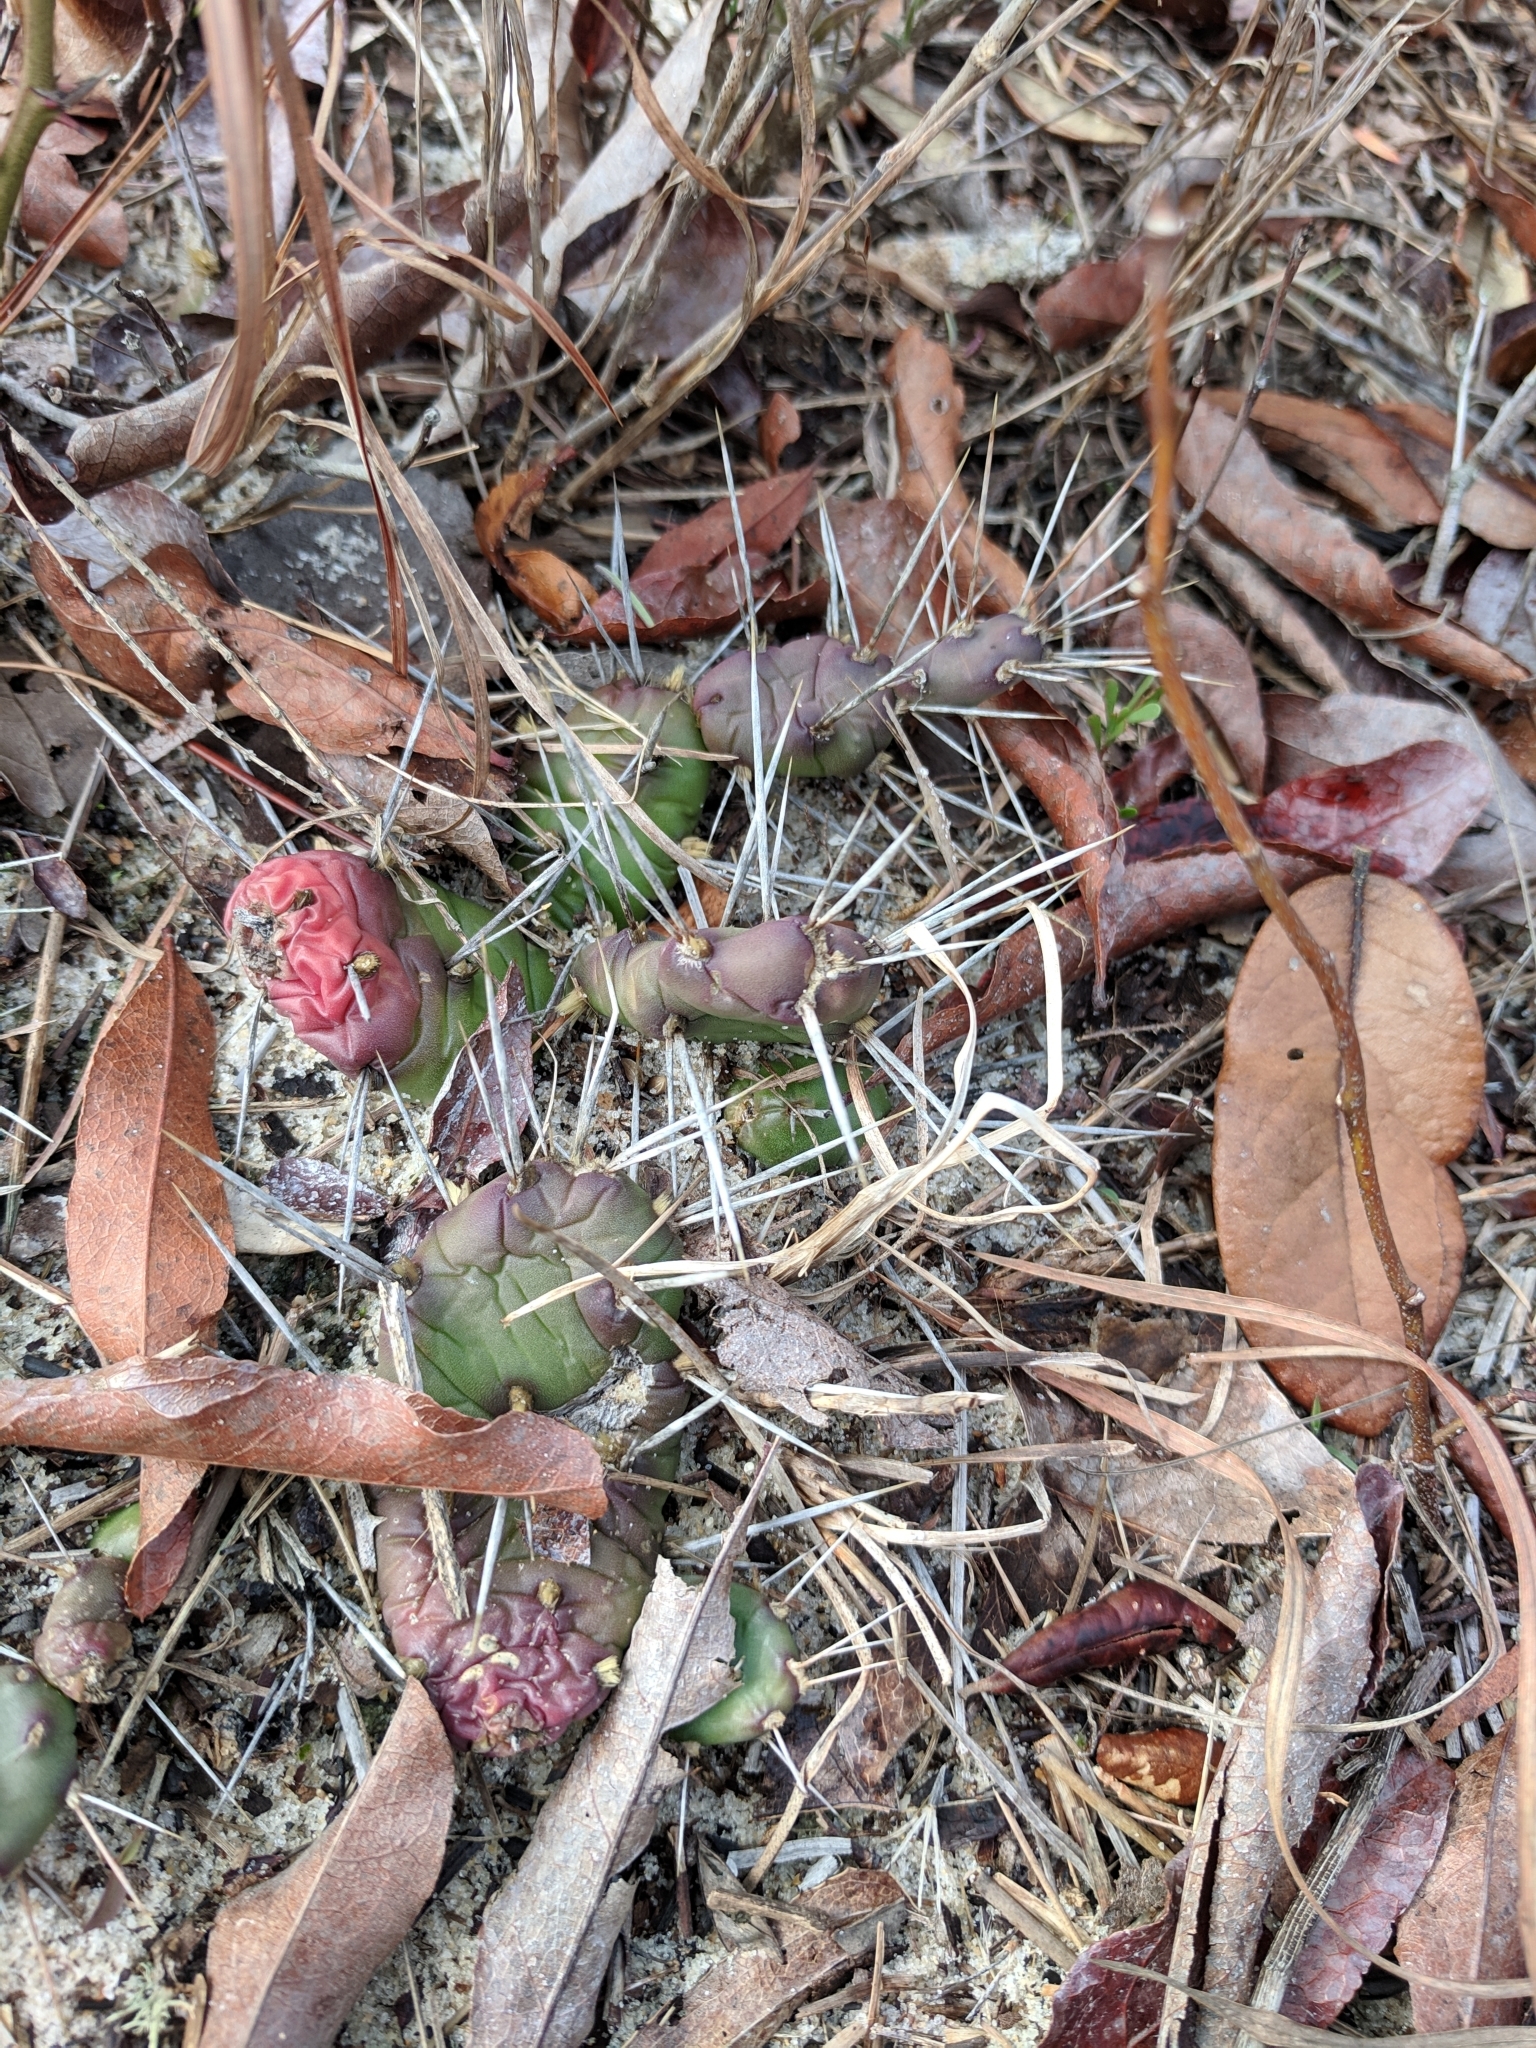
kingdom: Plantae
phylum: Tracheophyta
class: Magnoliopsida
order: Caryophyllales
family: Cactaceae
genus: Opuntia
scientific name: Opuntia drummondii
